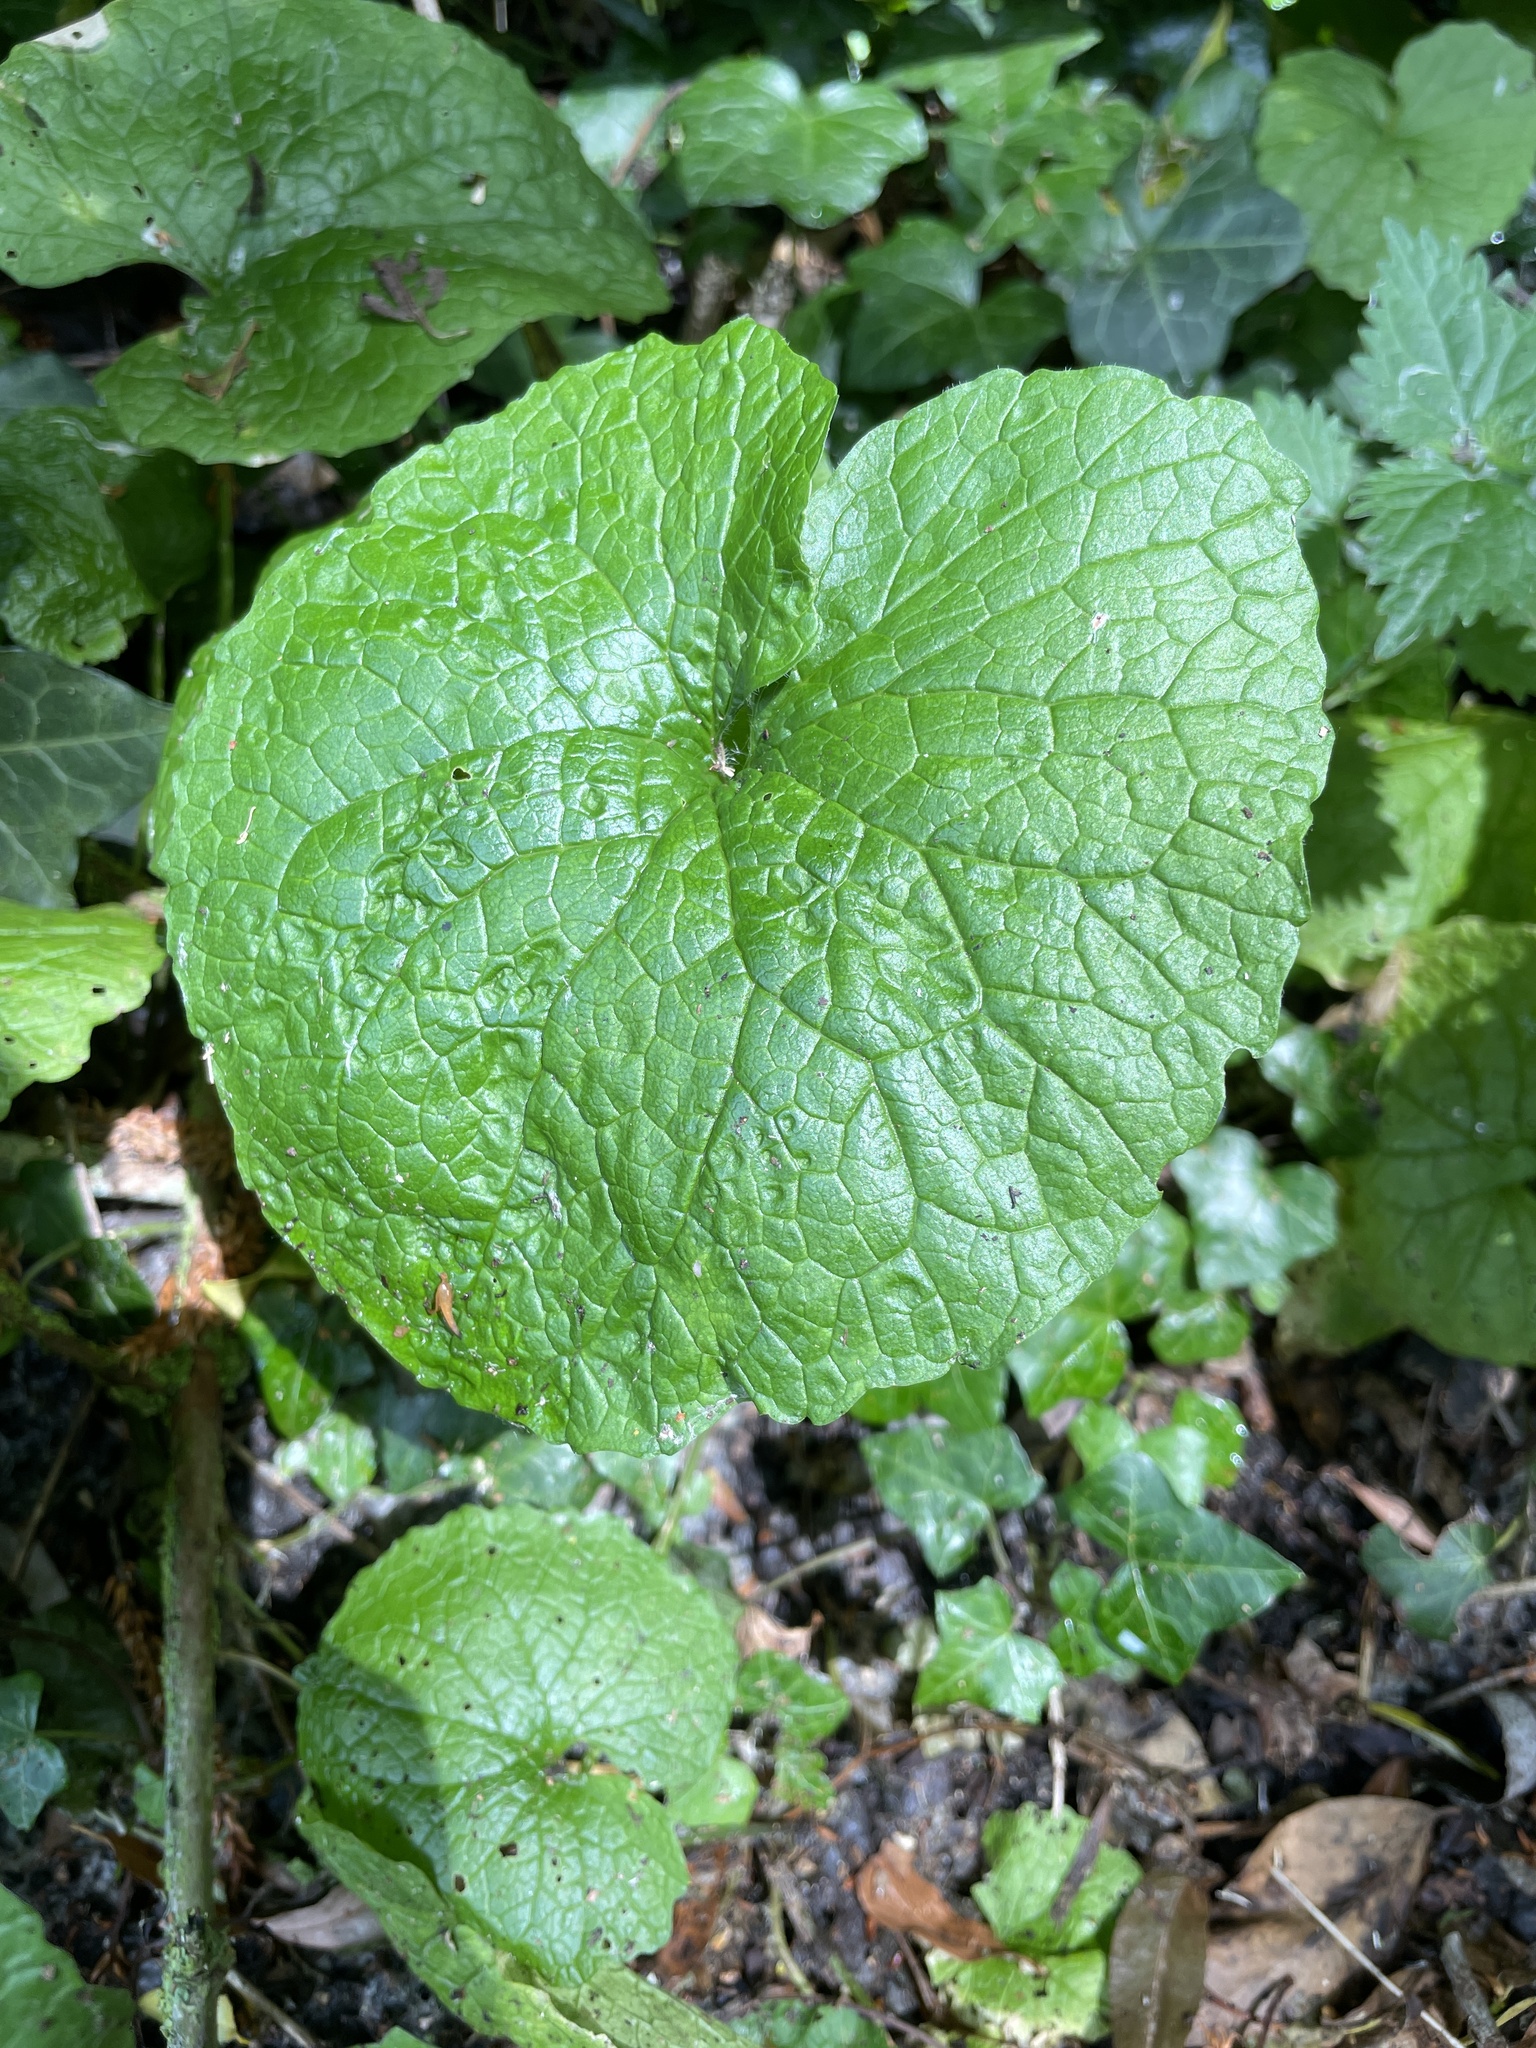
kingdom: Plantae
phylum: Tracheophyta
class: Magnoliopsida
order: Brassicales
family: Brassicaceae
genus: Alliaria
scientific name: Alliaria petiolata
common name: Garlic mustard
